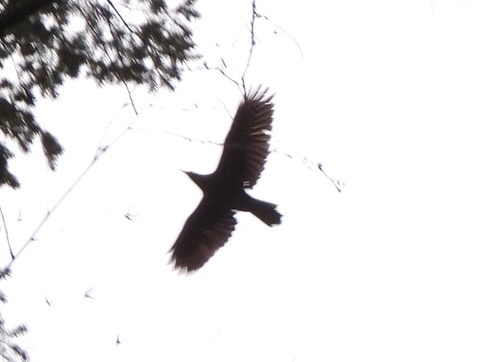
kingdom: Animalia
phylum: Chordata
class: Aves
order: Passeriformes
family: Corvidae
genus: Corvus
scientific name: Corvus corax
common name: Common raven
